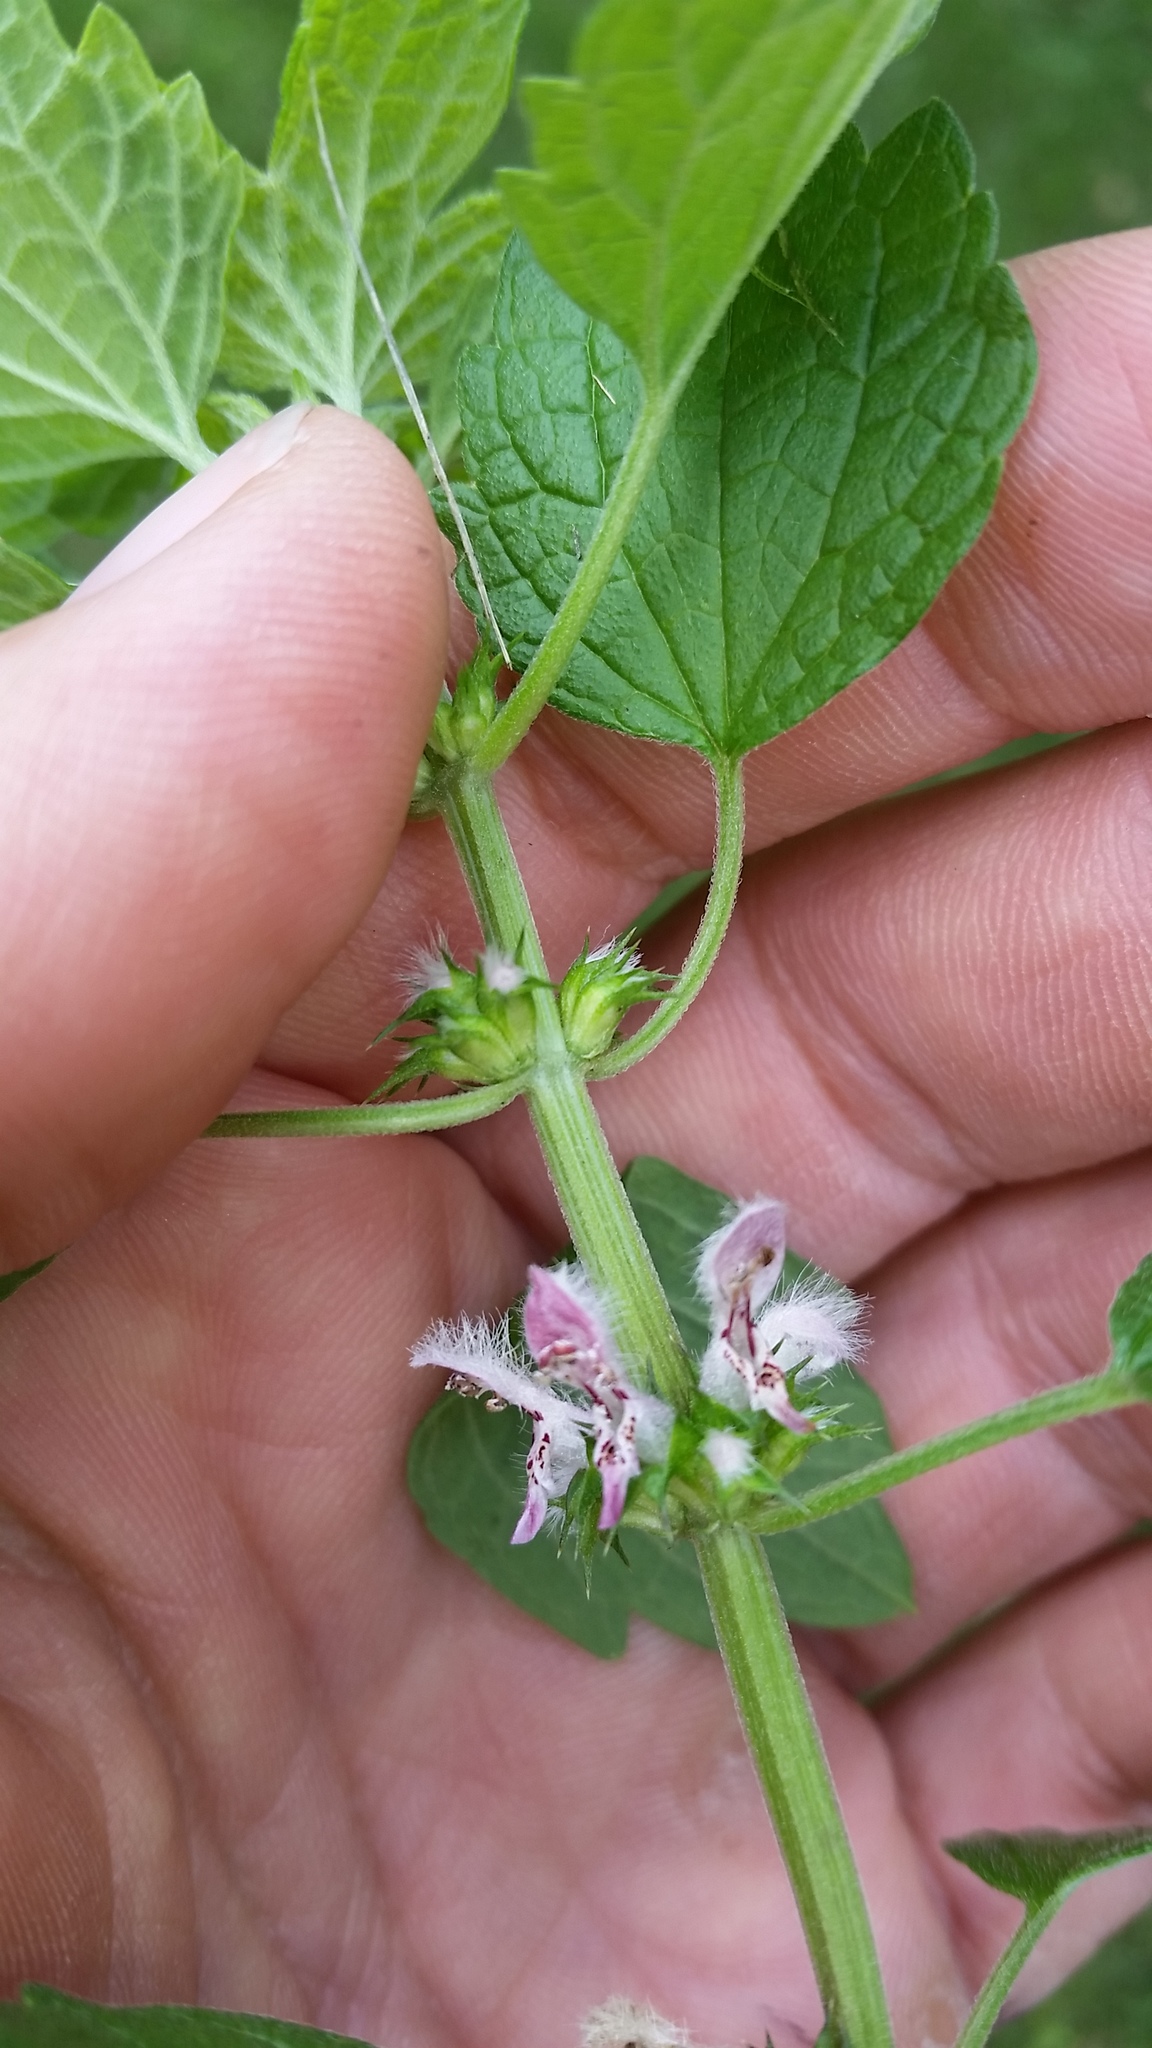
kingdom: Plantae
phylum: Tracheophyta
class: Magnoliopsida
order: Lamiales
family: Lamiaceae
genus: Leonurus
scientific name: Leonurus cardiaca
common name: Motherwort
